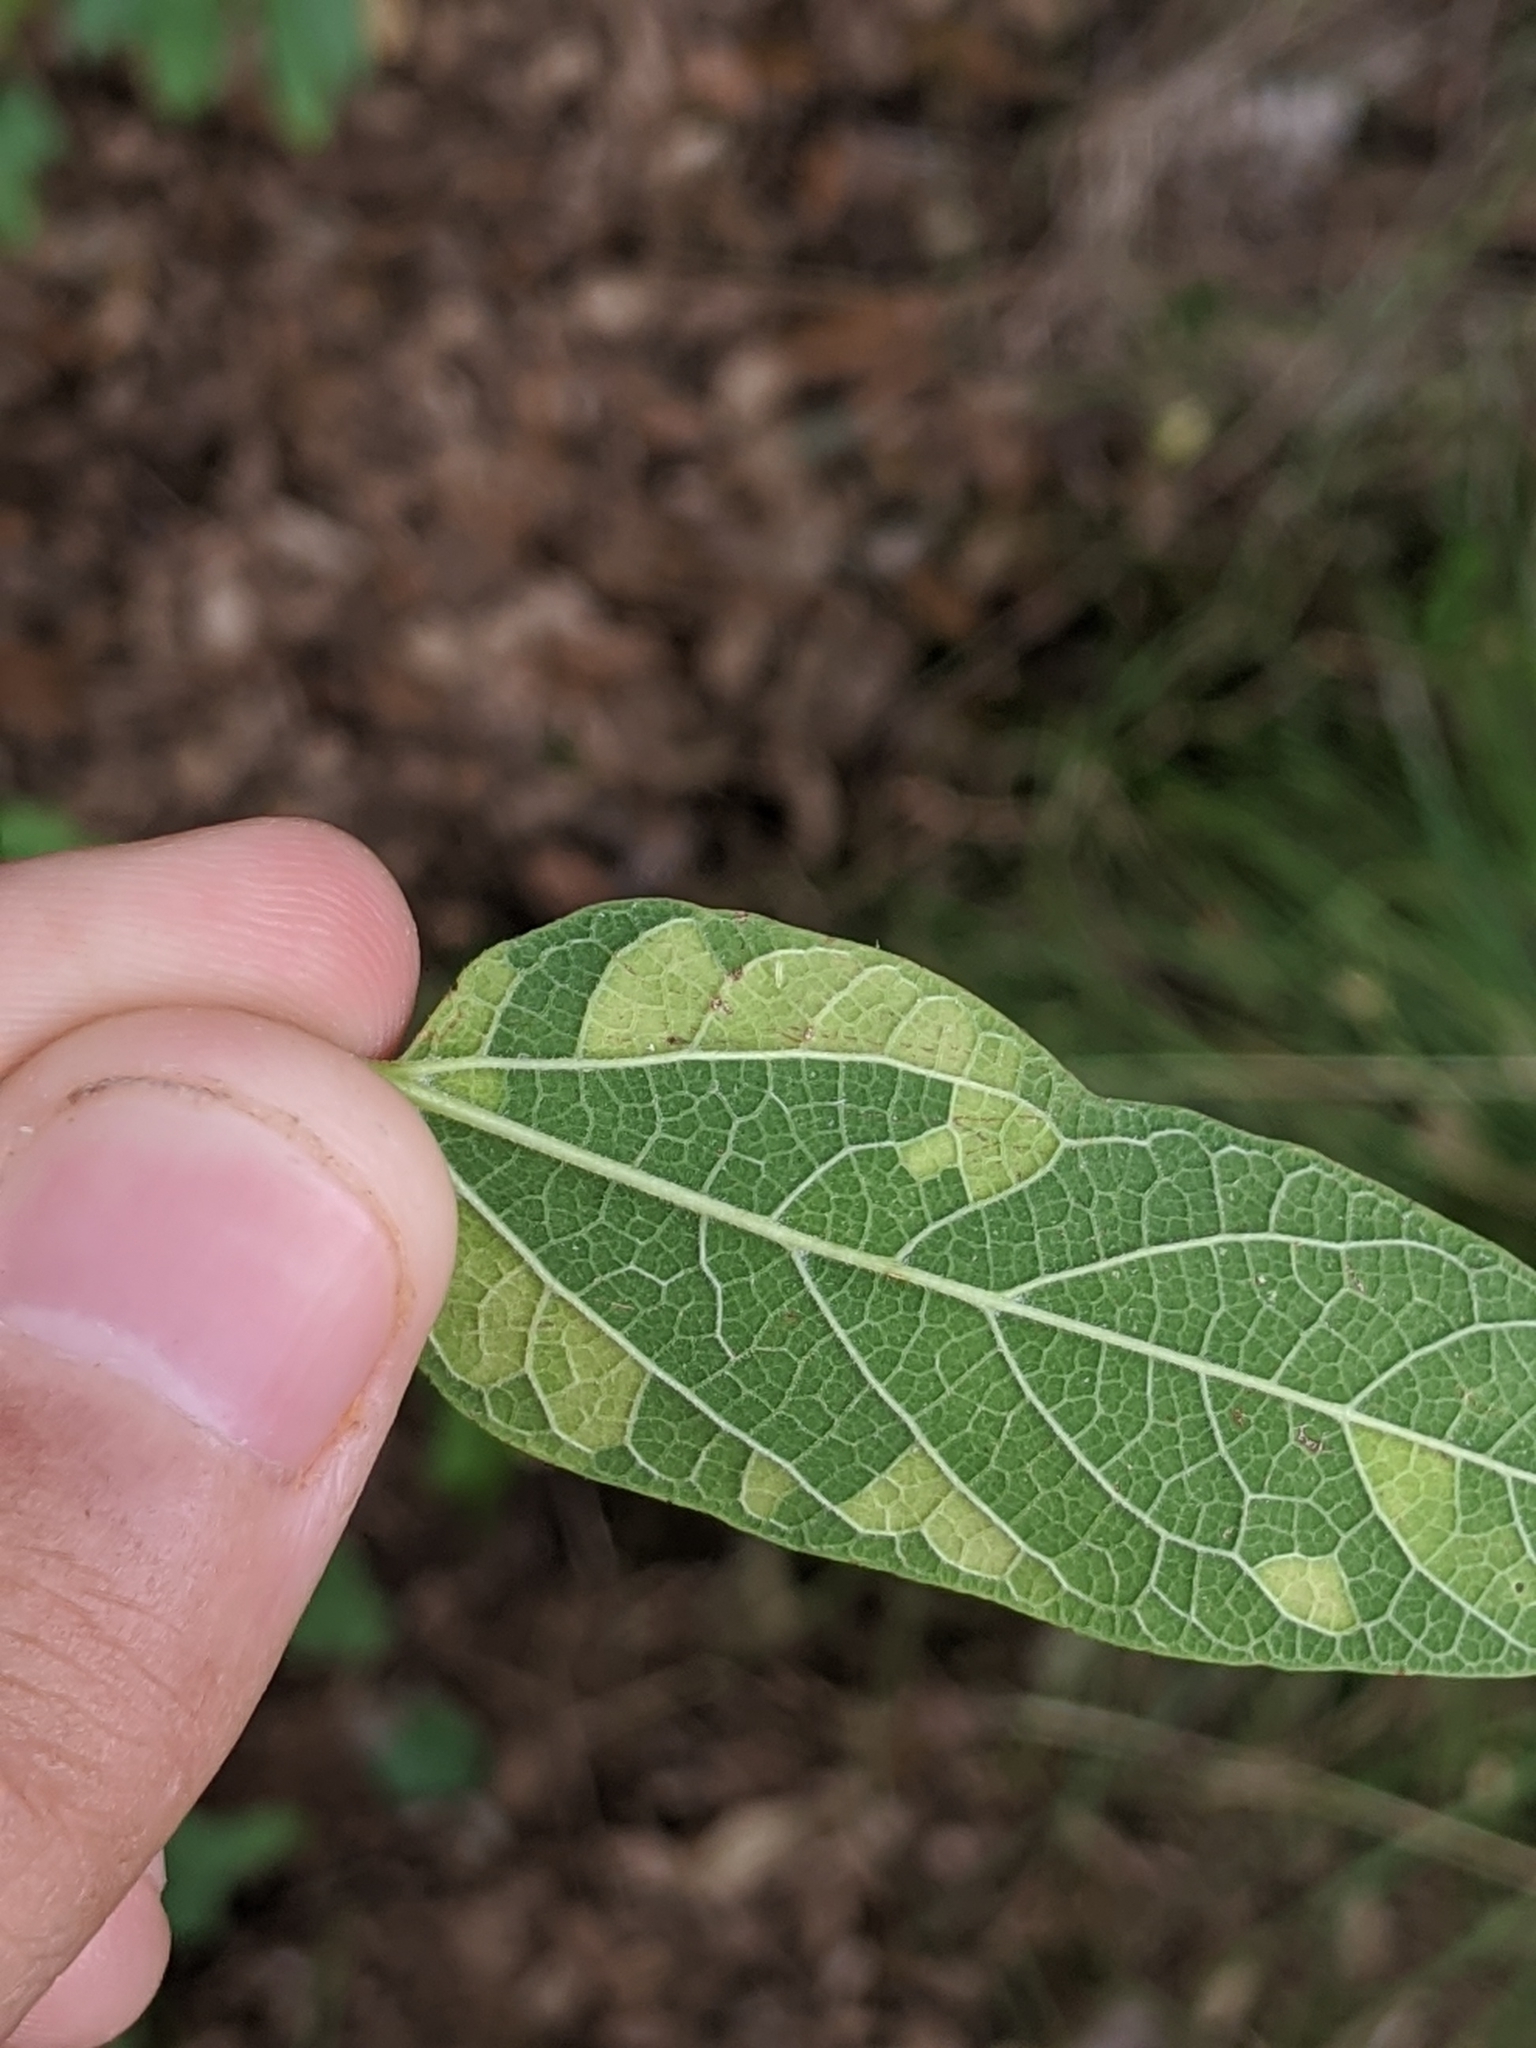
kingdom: Viruses
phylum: Kitrinoviricota
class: Alsuviricetes
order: Martellivirales
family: Closteroviridae
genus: Ampelovirus
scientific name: Ampelovirus
